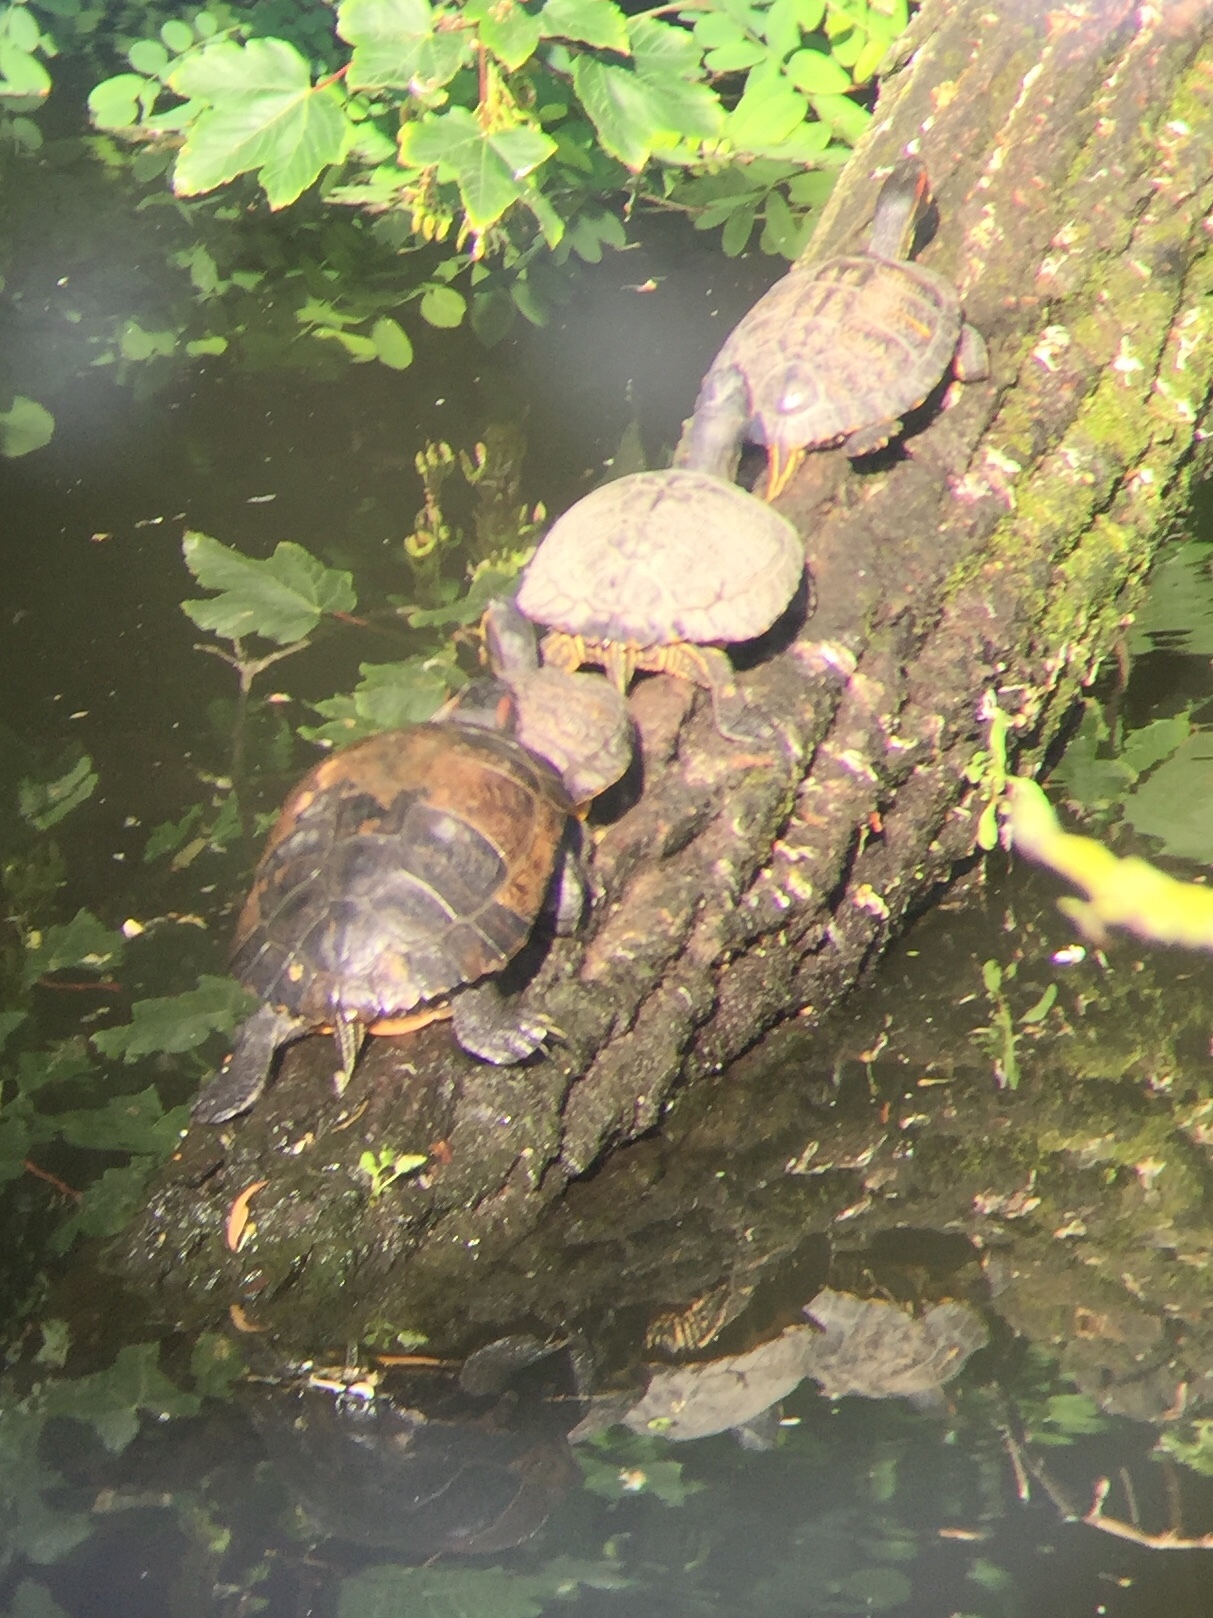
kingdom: Animalia
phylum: Chordata
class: Testudines
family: Emydidae
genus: Trachemys
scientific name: Trachemys scripta
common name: Slider
